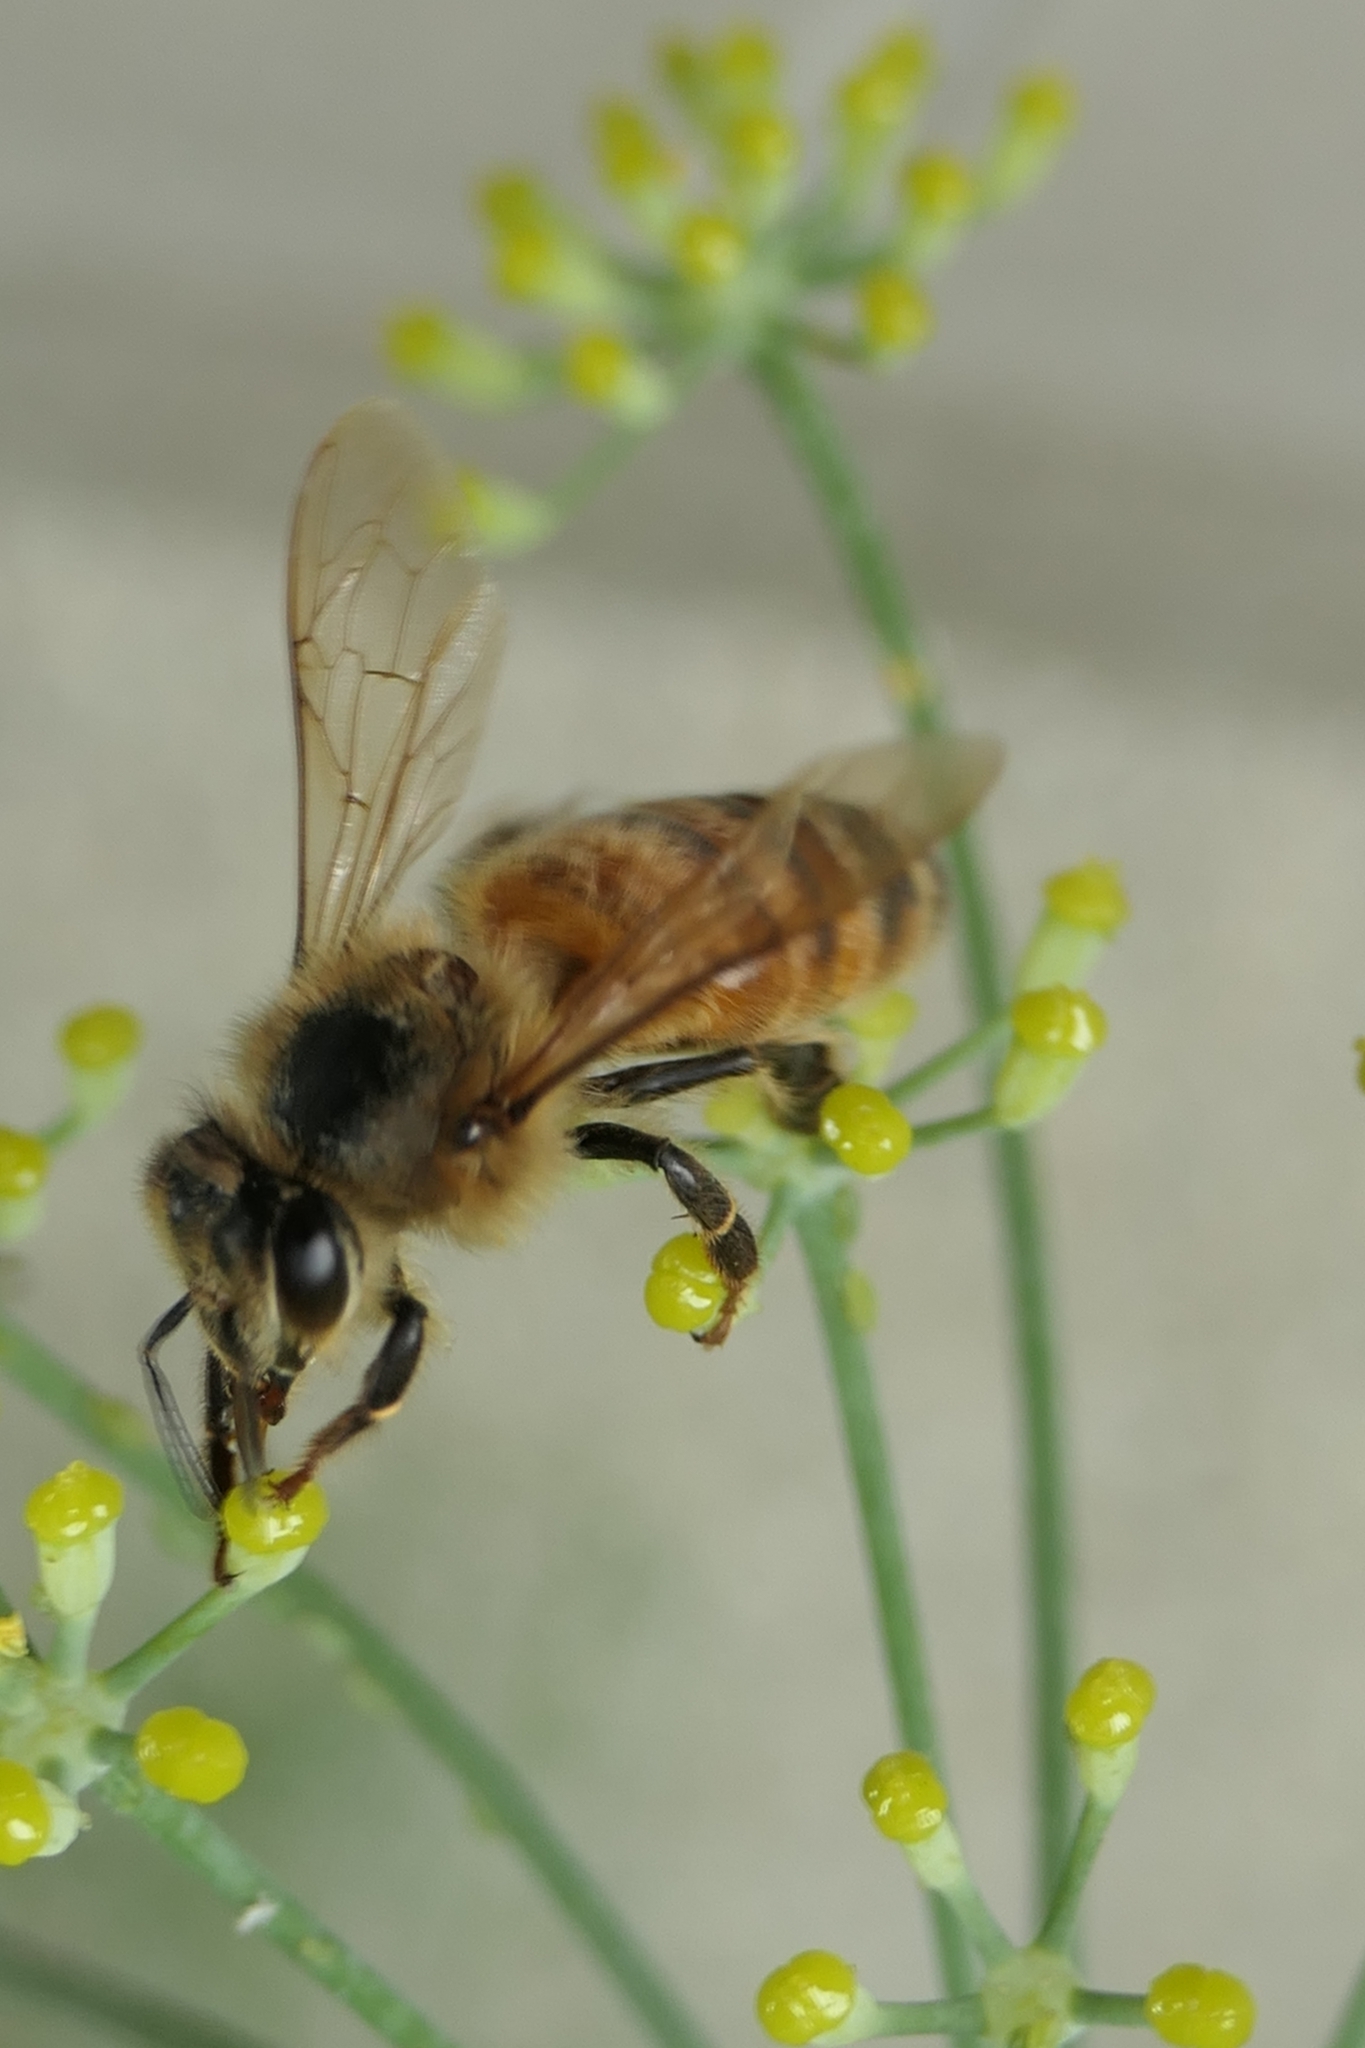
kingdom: Animalia
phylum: Arthropoda
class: Insecta
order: Hymenoptera
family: Apidae
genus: Apis
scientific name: Apis mellifera
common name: Honey bee
